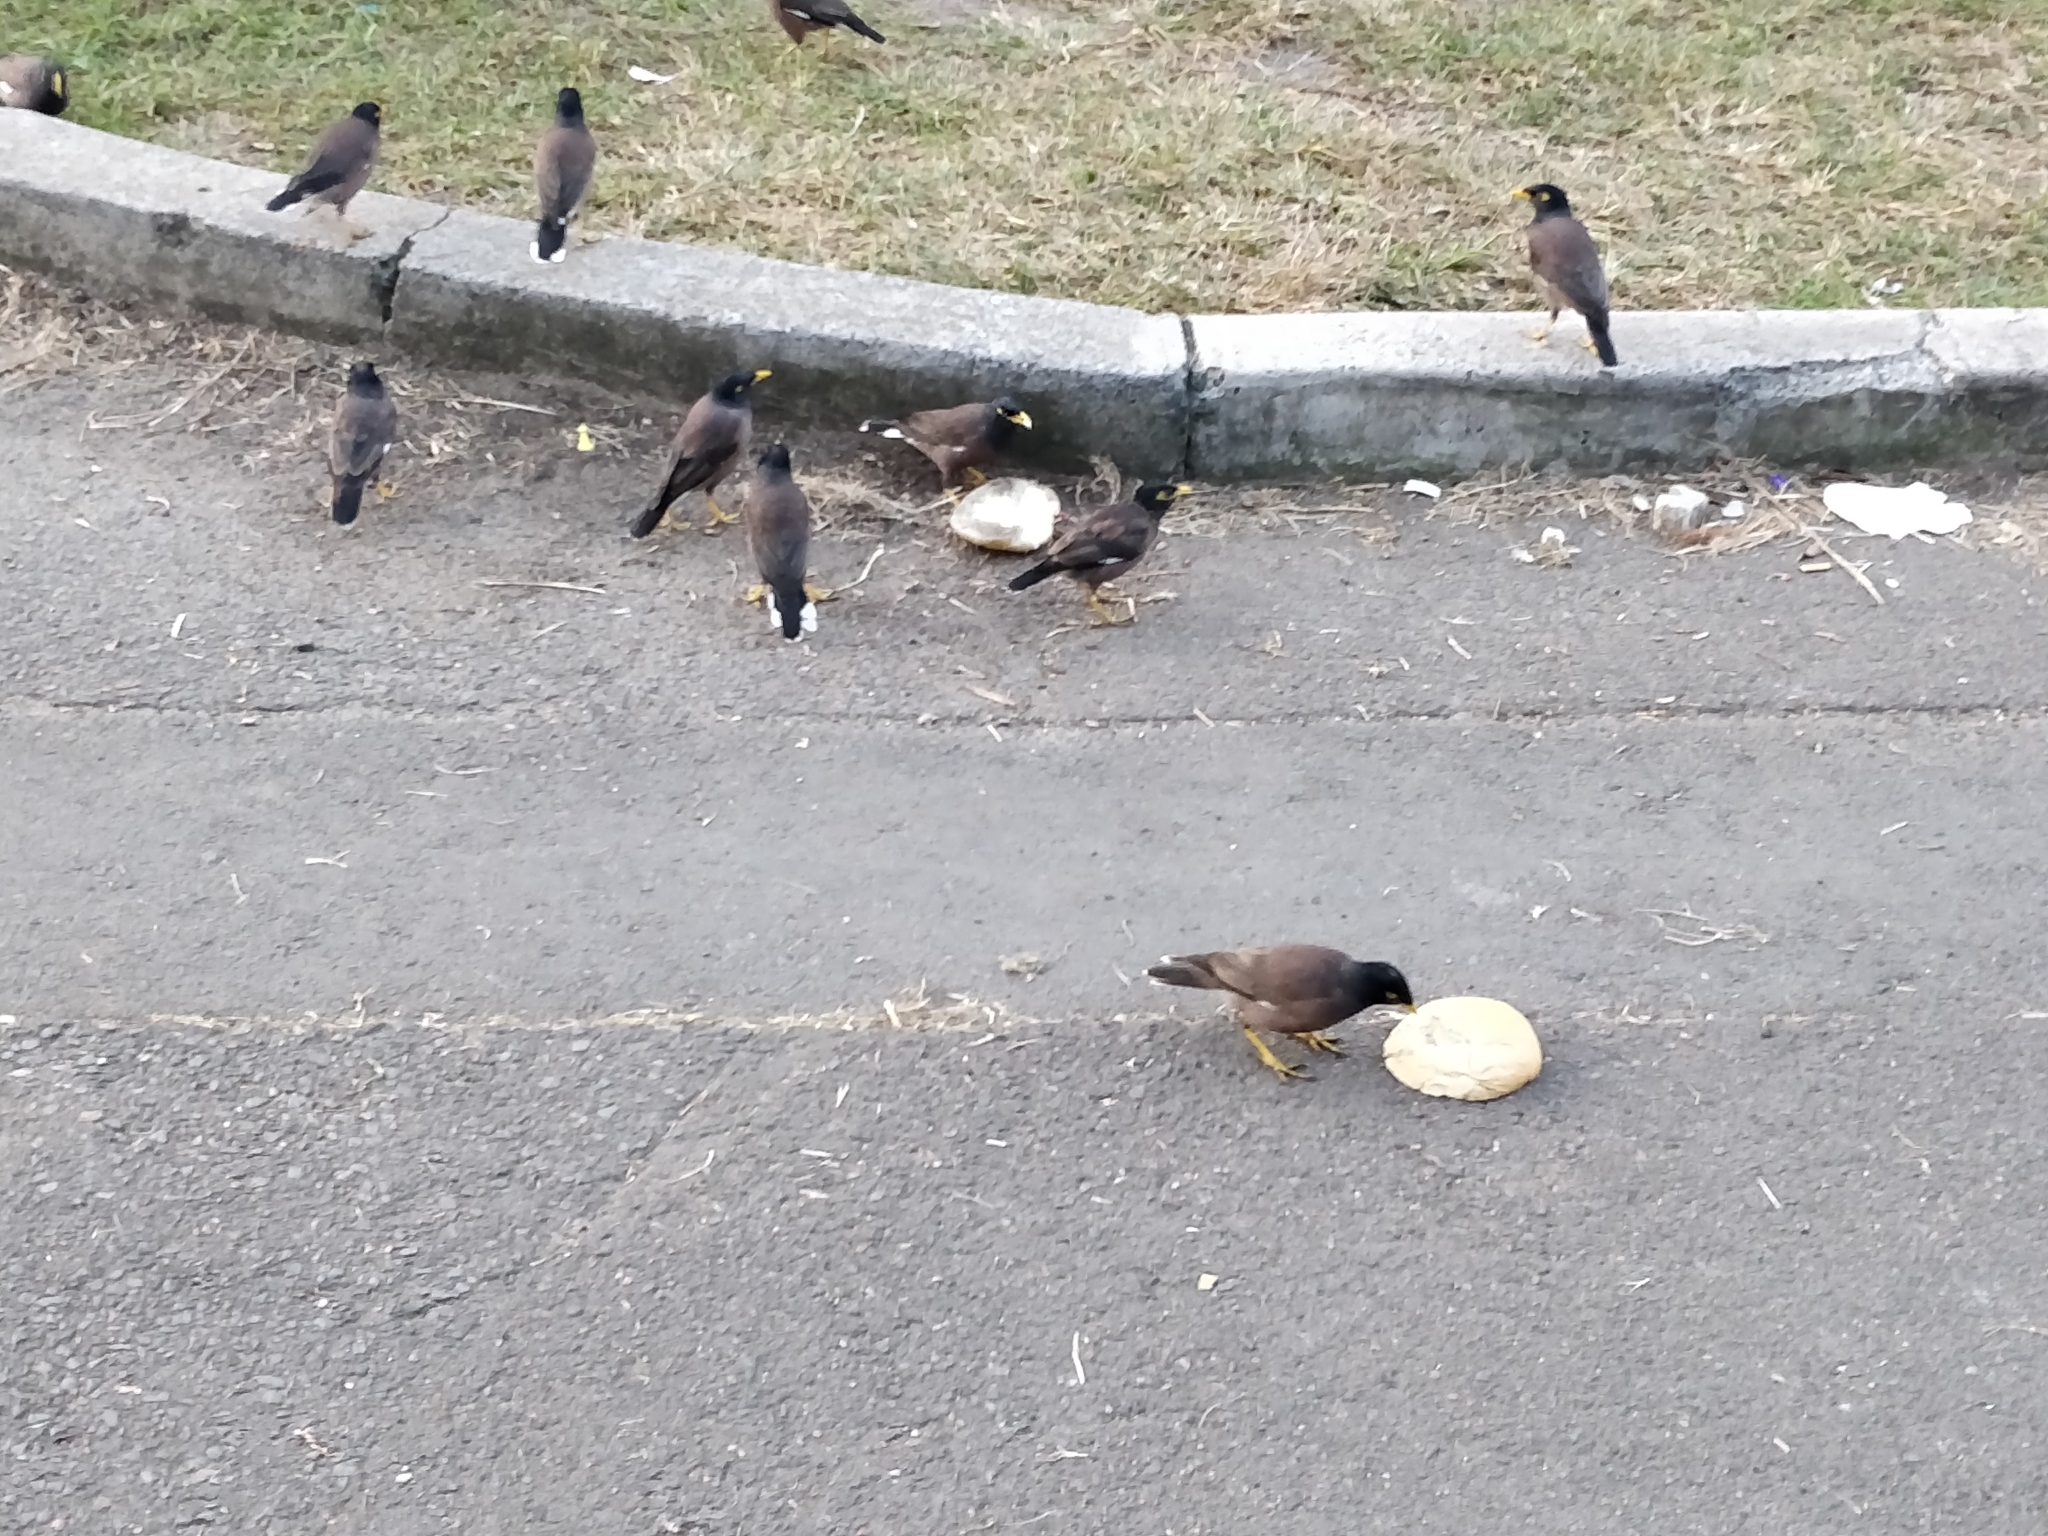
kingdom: Animalia
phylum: Chordata
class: Aves
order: Passeriformes
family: Sturnidae
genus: Acridotheres
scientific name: Acridotheres tristis
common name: Common myna
